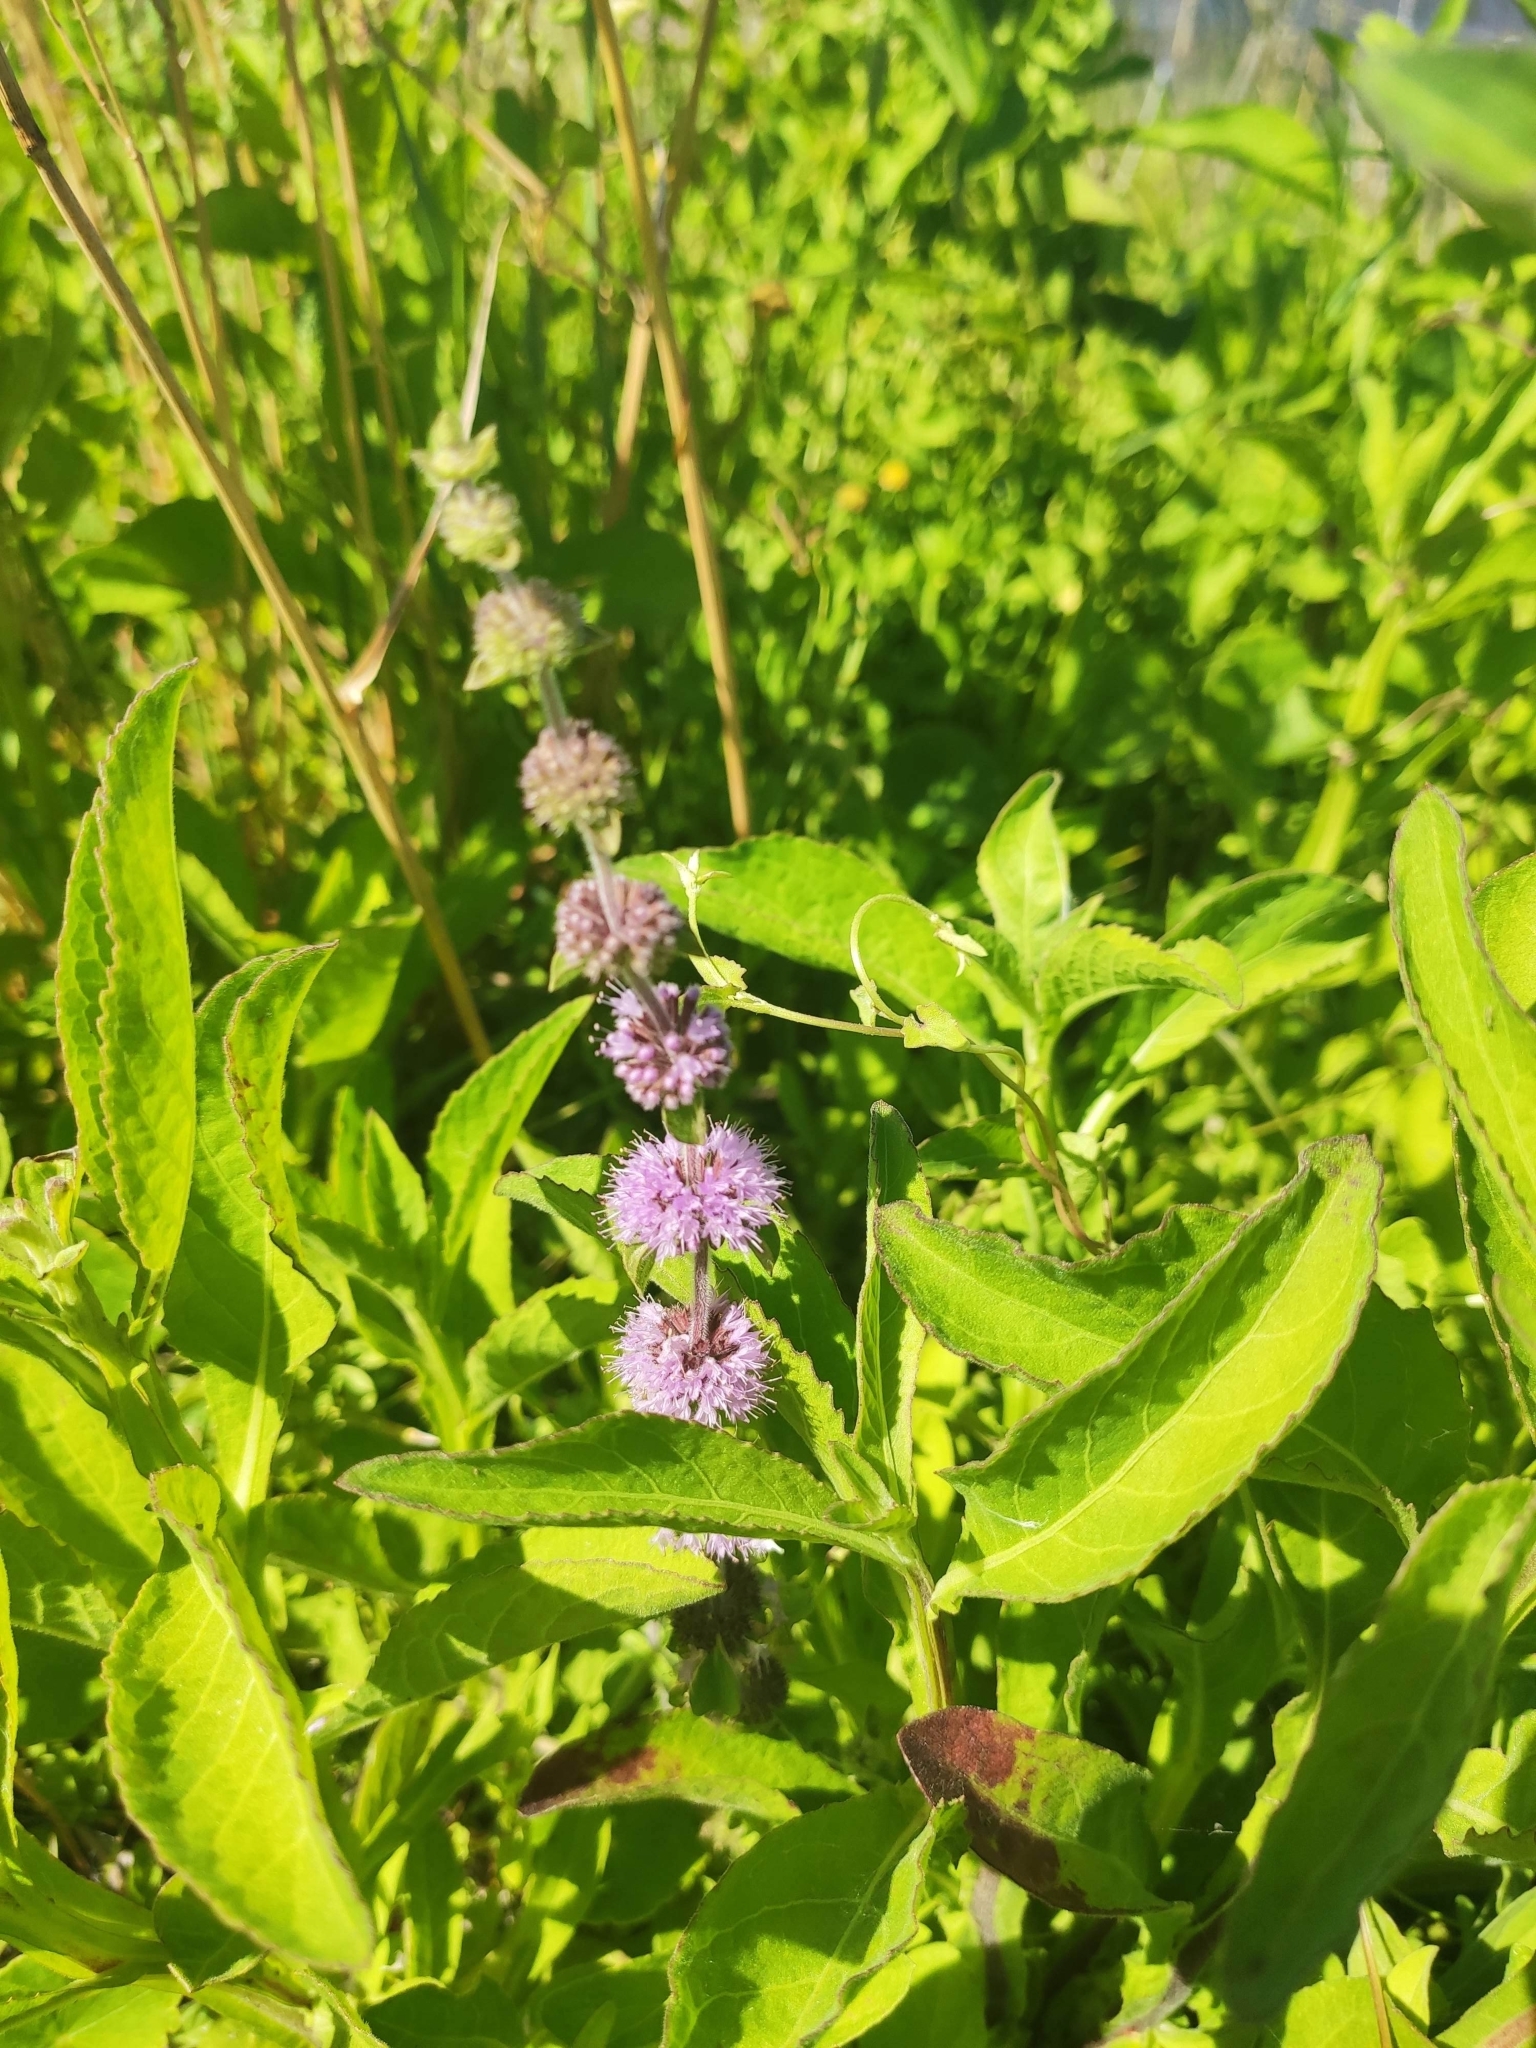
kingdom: Plantae
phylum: Tracheophyta
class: Magnoliopsida
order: Lamiales
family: Lamiaceae
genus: Mentha
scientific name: Mentha pulegium
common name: Pennyroyal
